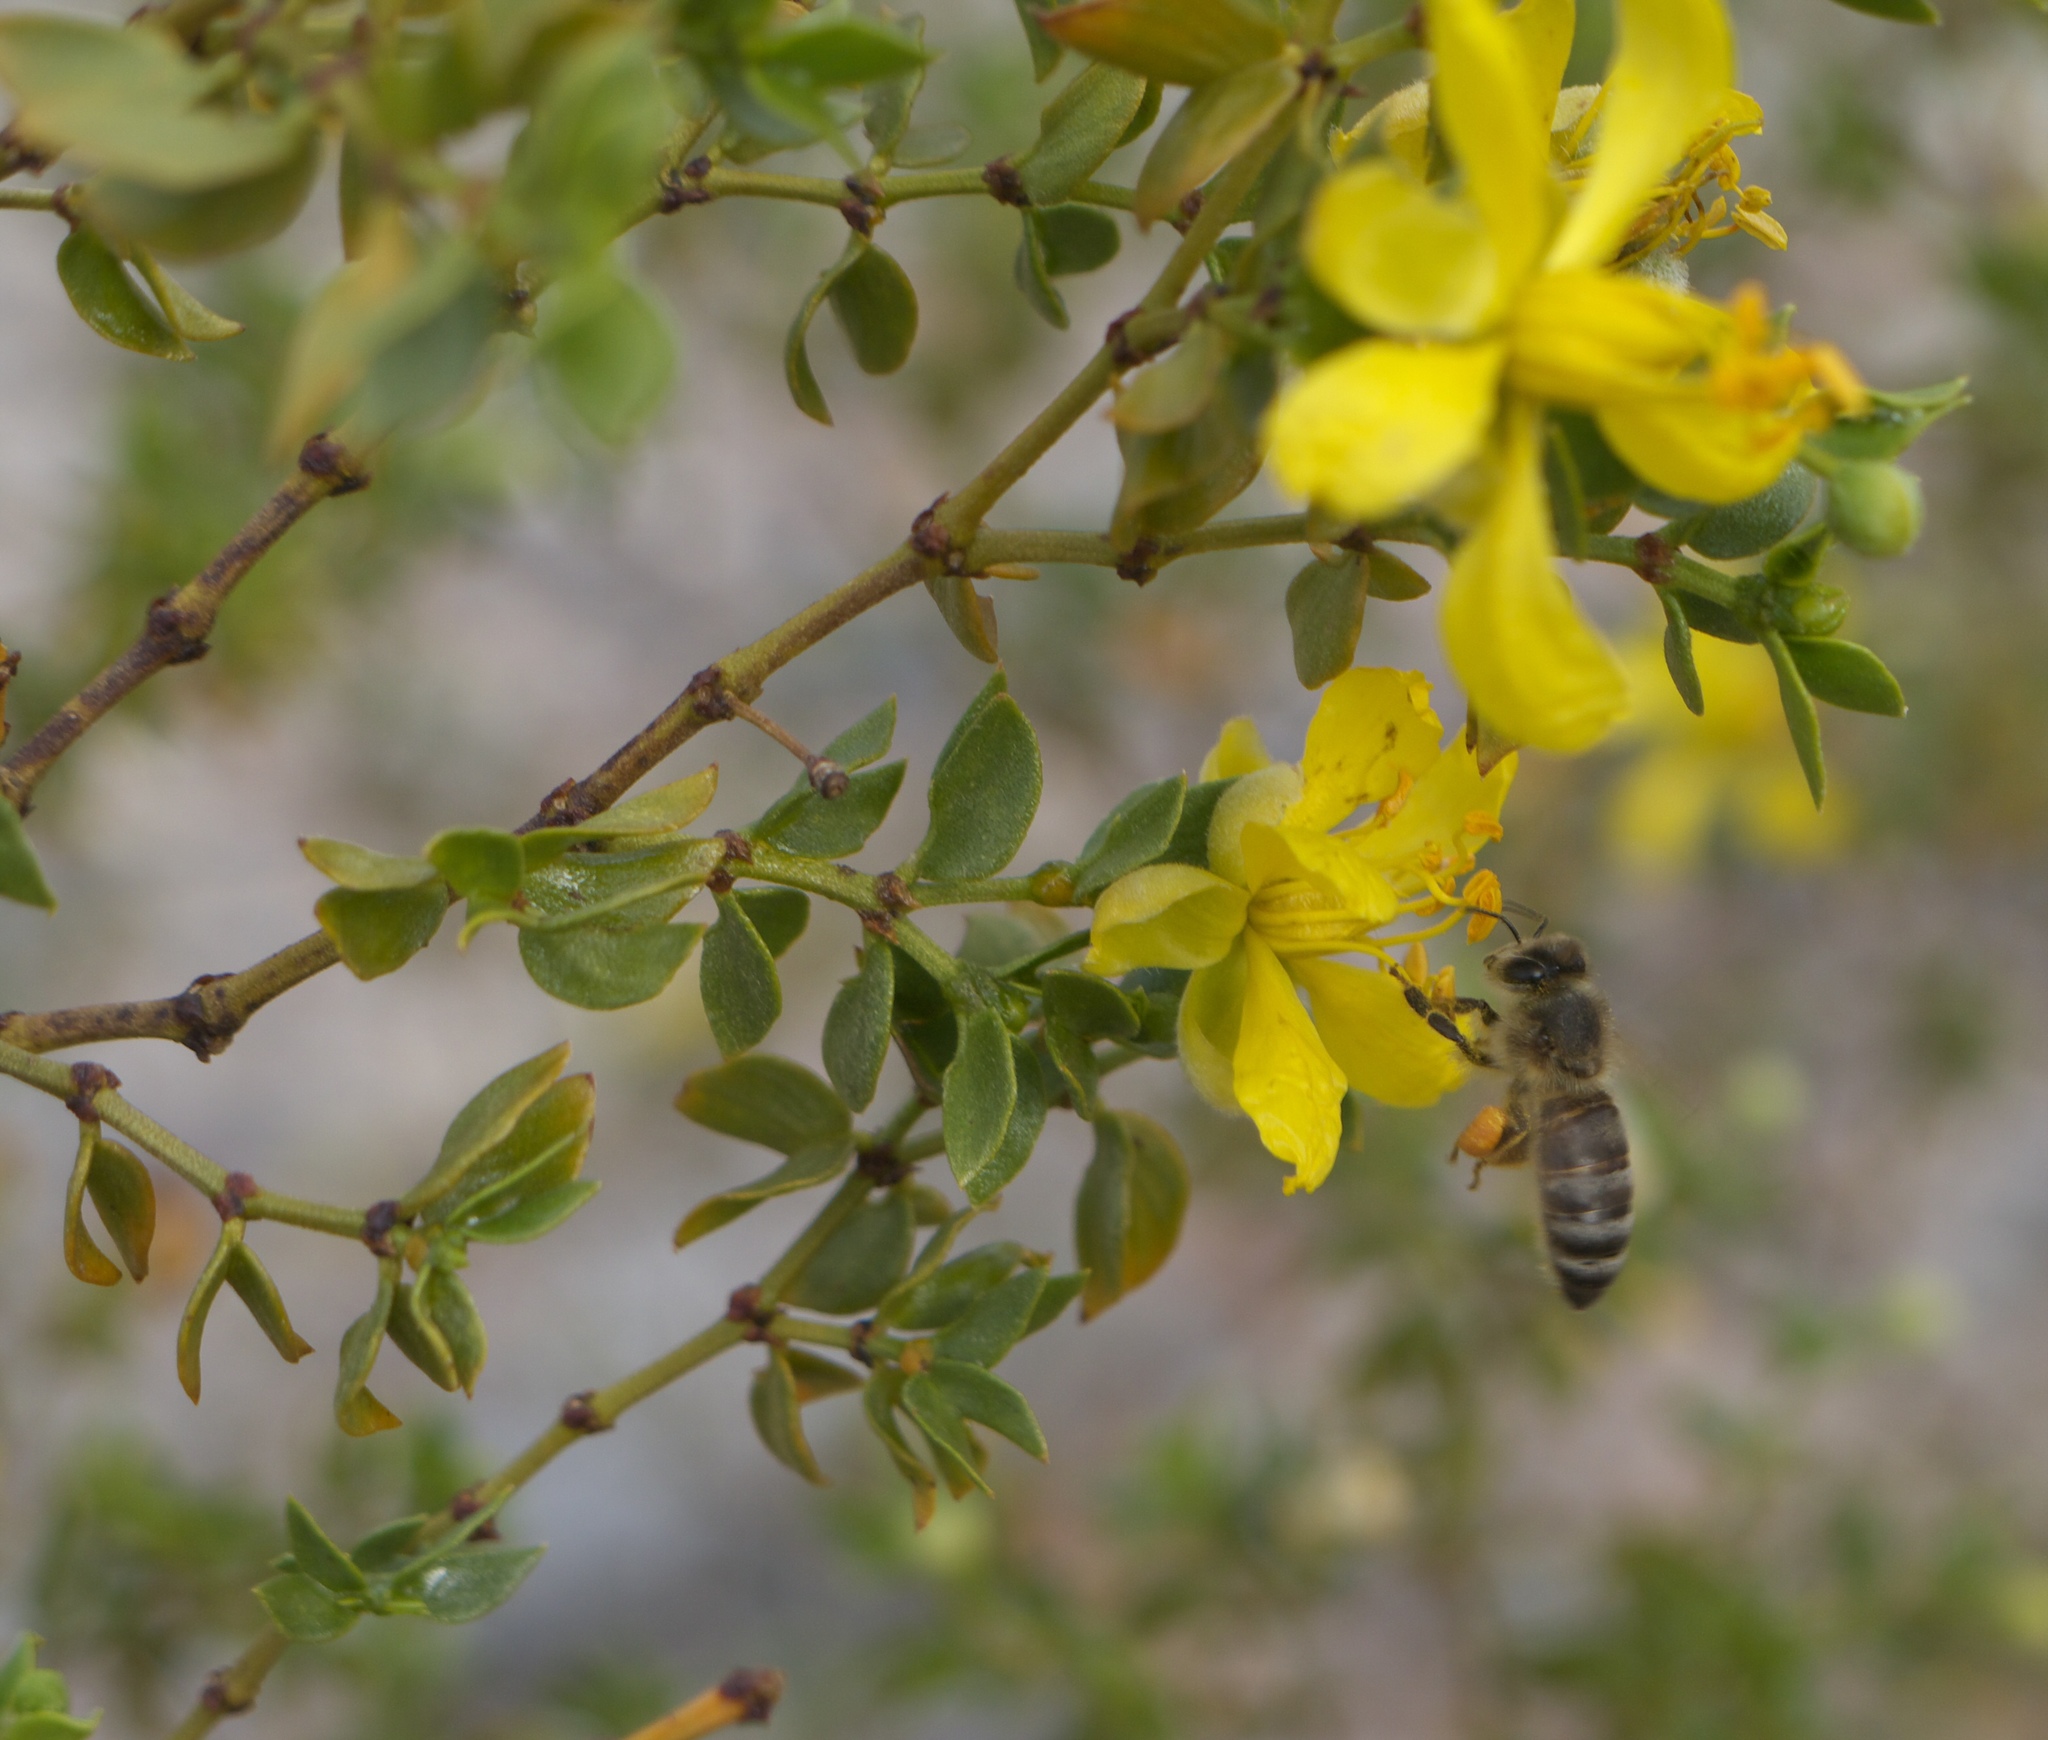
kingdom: Plantae
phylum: Tracheophyta
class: Magnoliopsida
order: Zygophyllales
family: Zygophyllaceae
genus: Larrea
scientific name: Larrea tridentata
